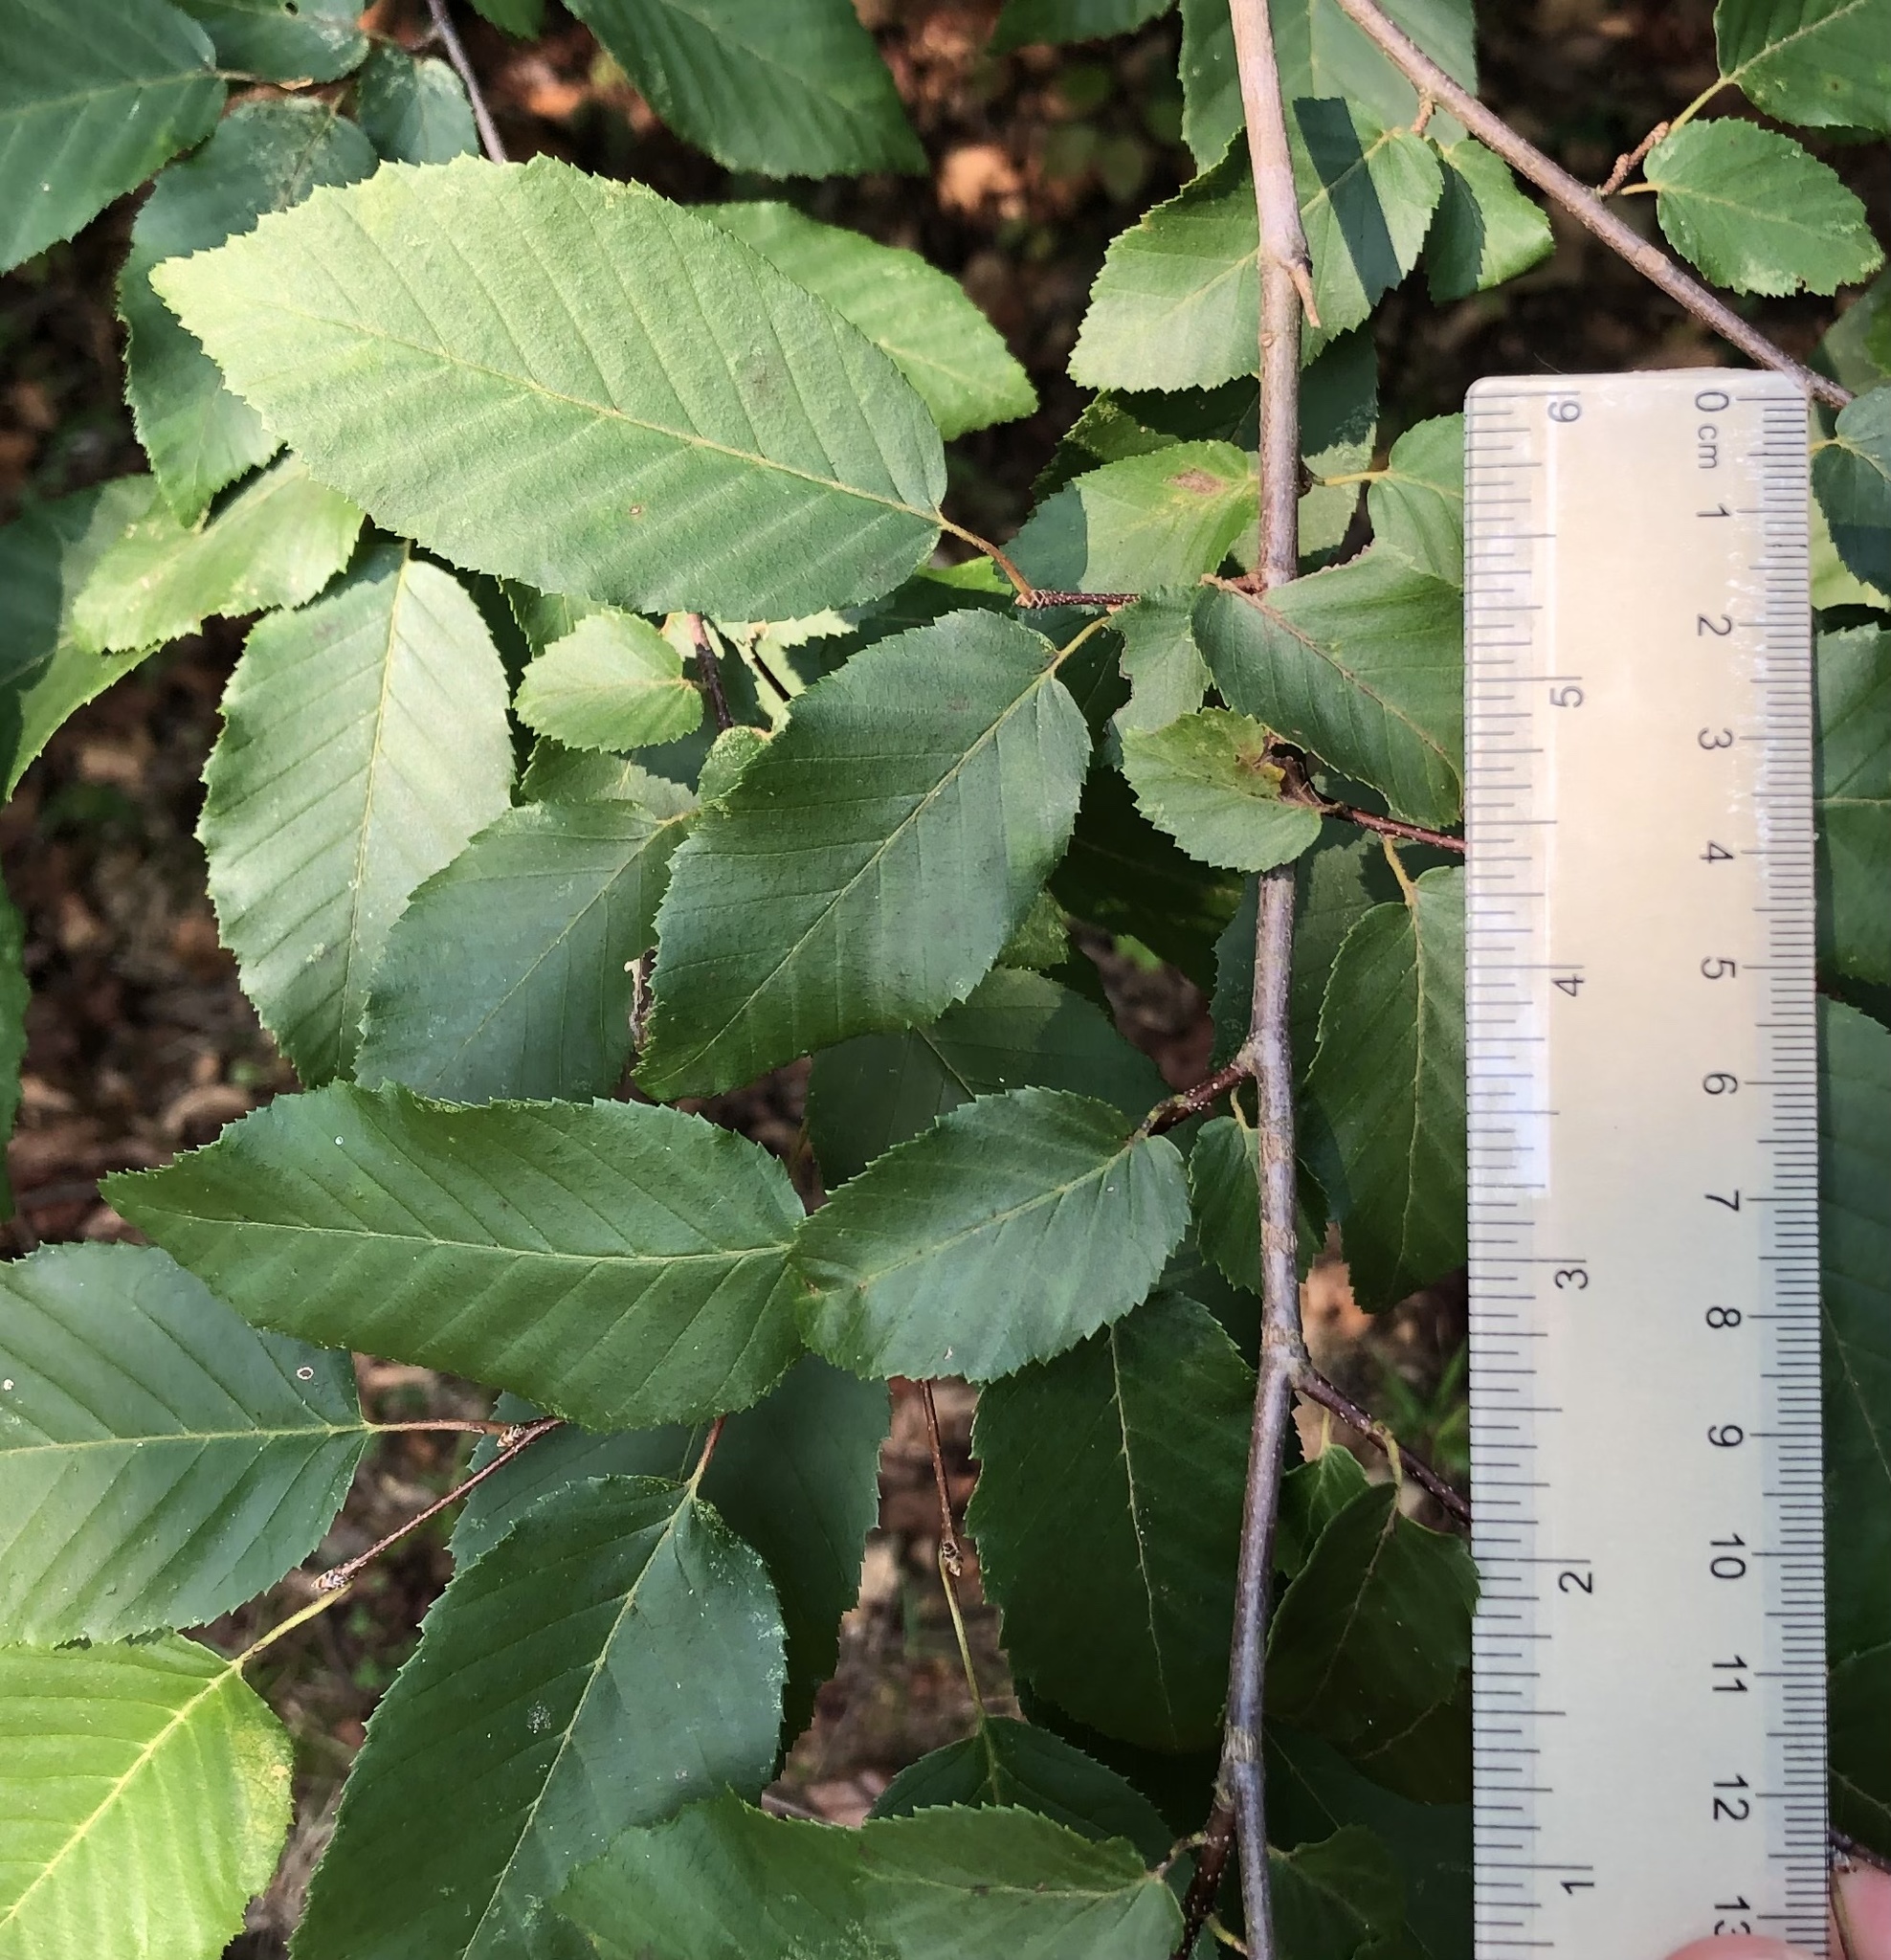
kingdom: Plantae
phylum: Tracheophyta
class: Magnoliopsida
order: Fagales
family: Betulaceae
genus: Carpinus
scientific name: Carpinus caroliniana
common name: American hornbeam
